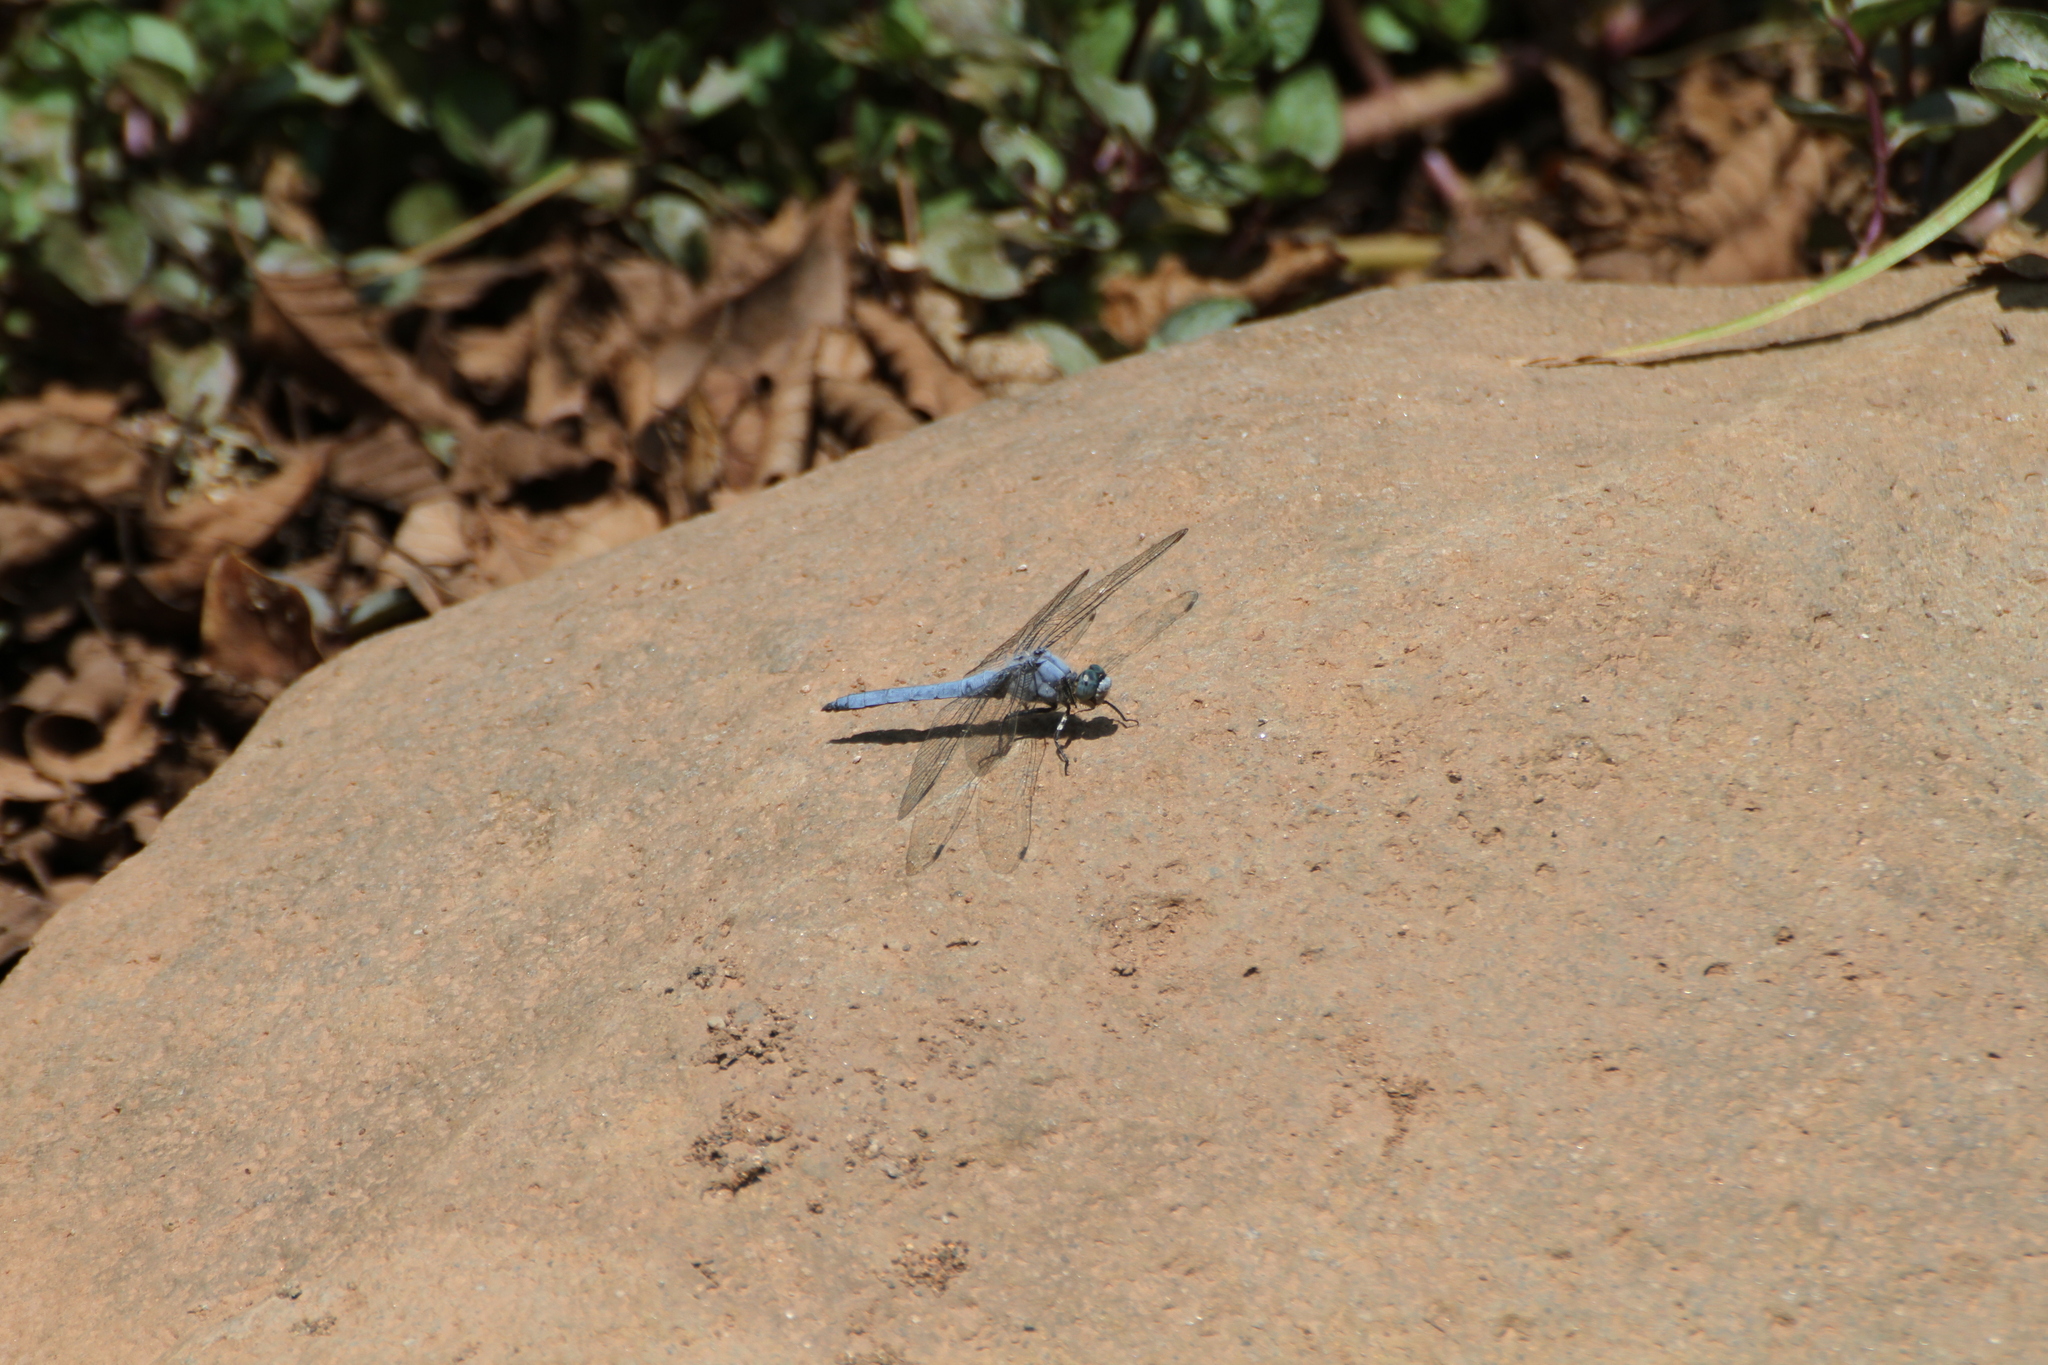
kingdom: Animalia
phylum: Arthropoda
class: Insecta
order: Odonata
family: Libellulidae
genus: Orthetrum
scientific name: Orthetrum brunneum
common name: Southern skimmer
